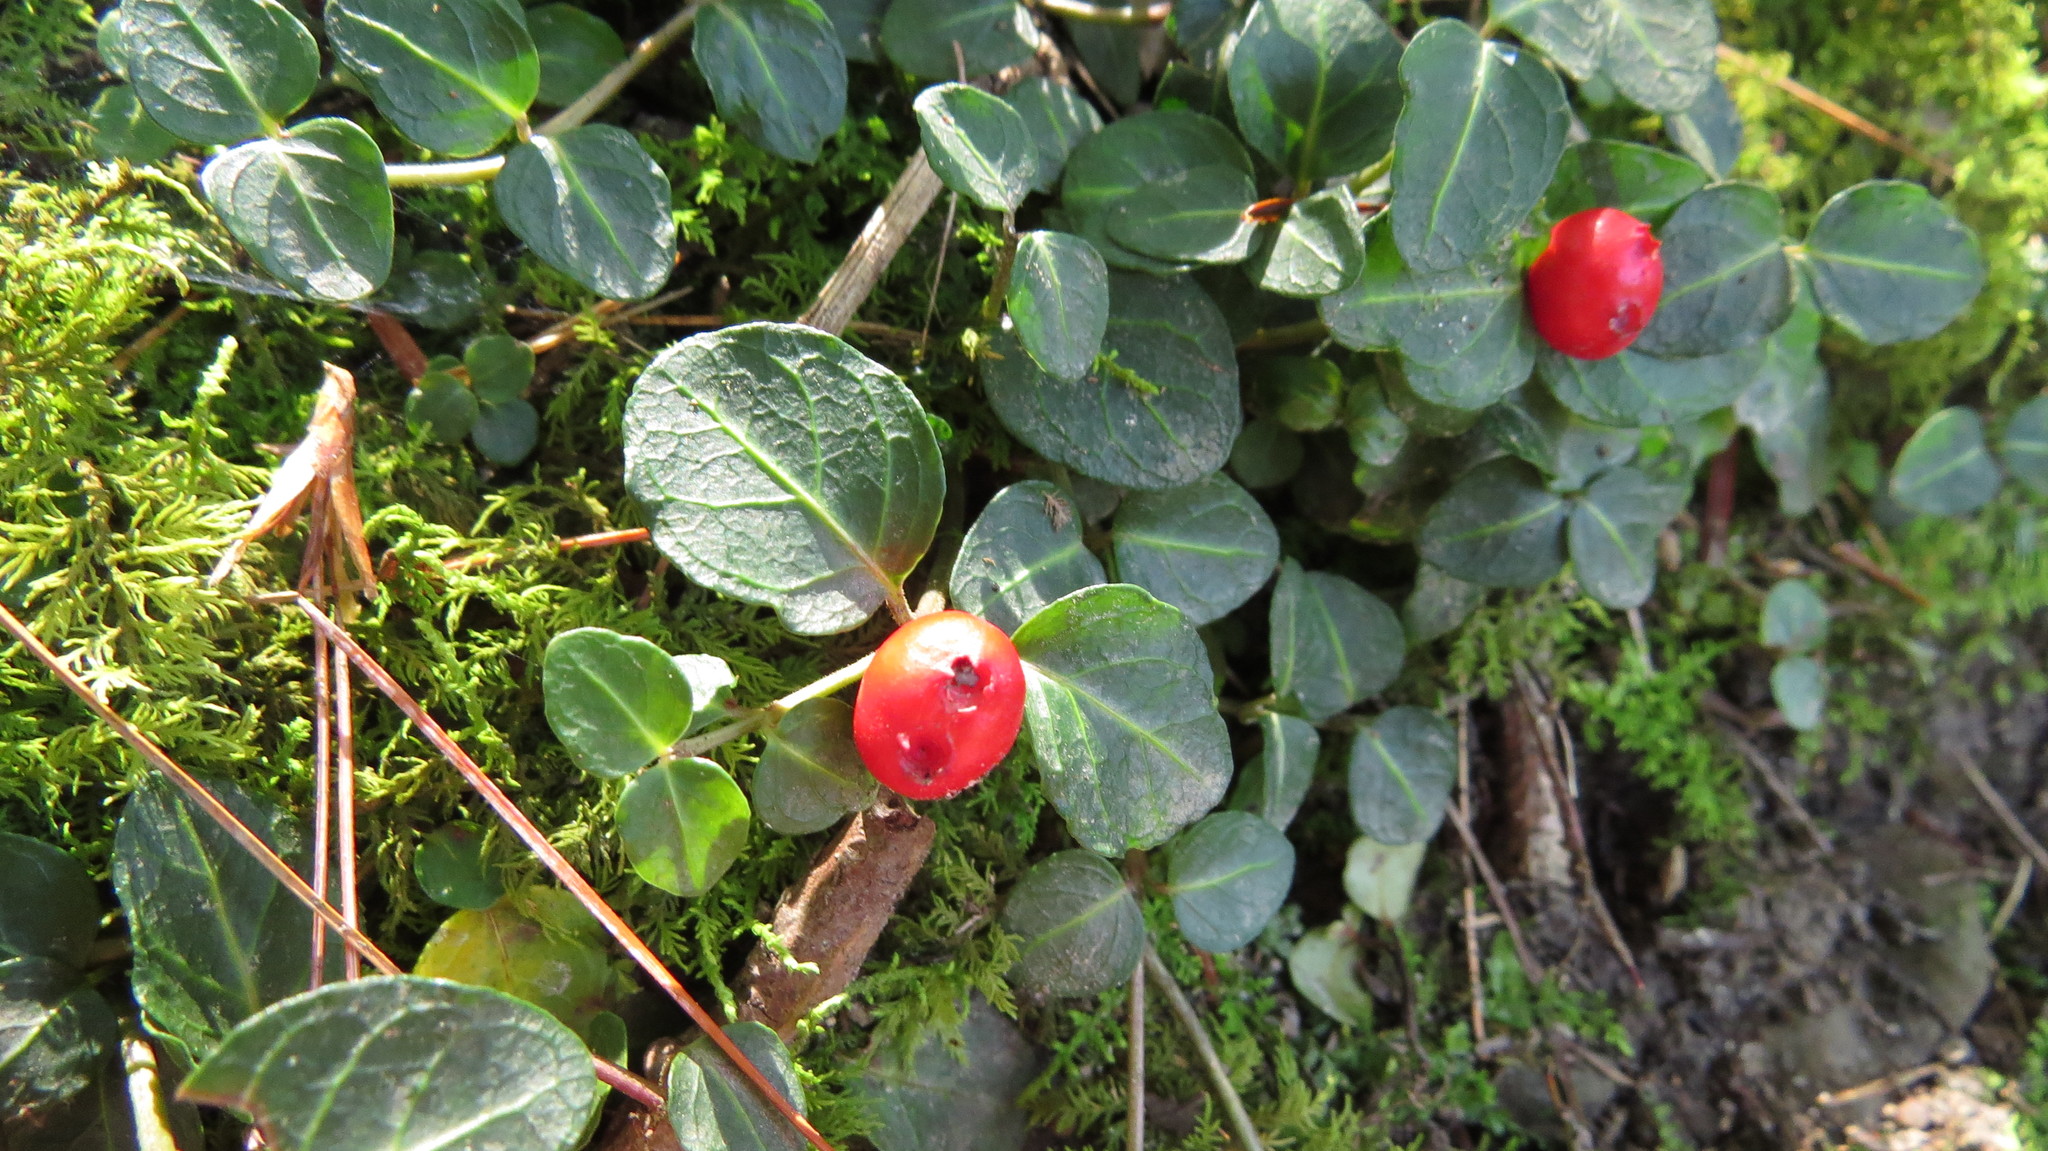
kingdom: Plantae
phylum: Tracheophyta
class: Magnoliopsida
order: Gentianales
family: Rubiaceae
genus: Mitchella
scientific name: Mitchella repens
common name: Partridge-berry
